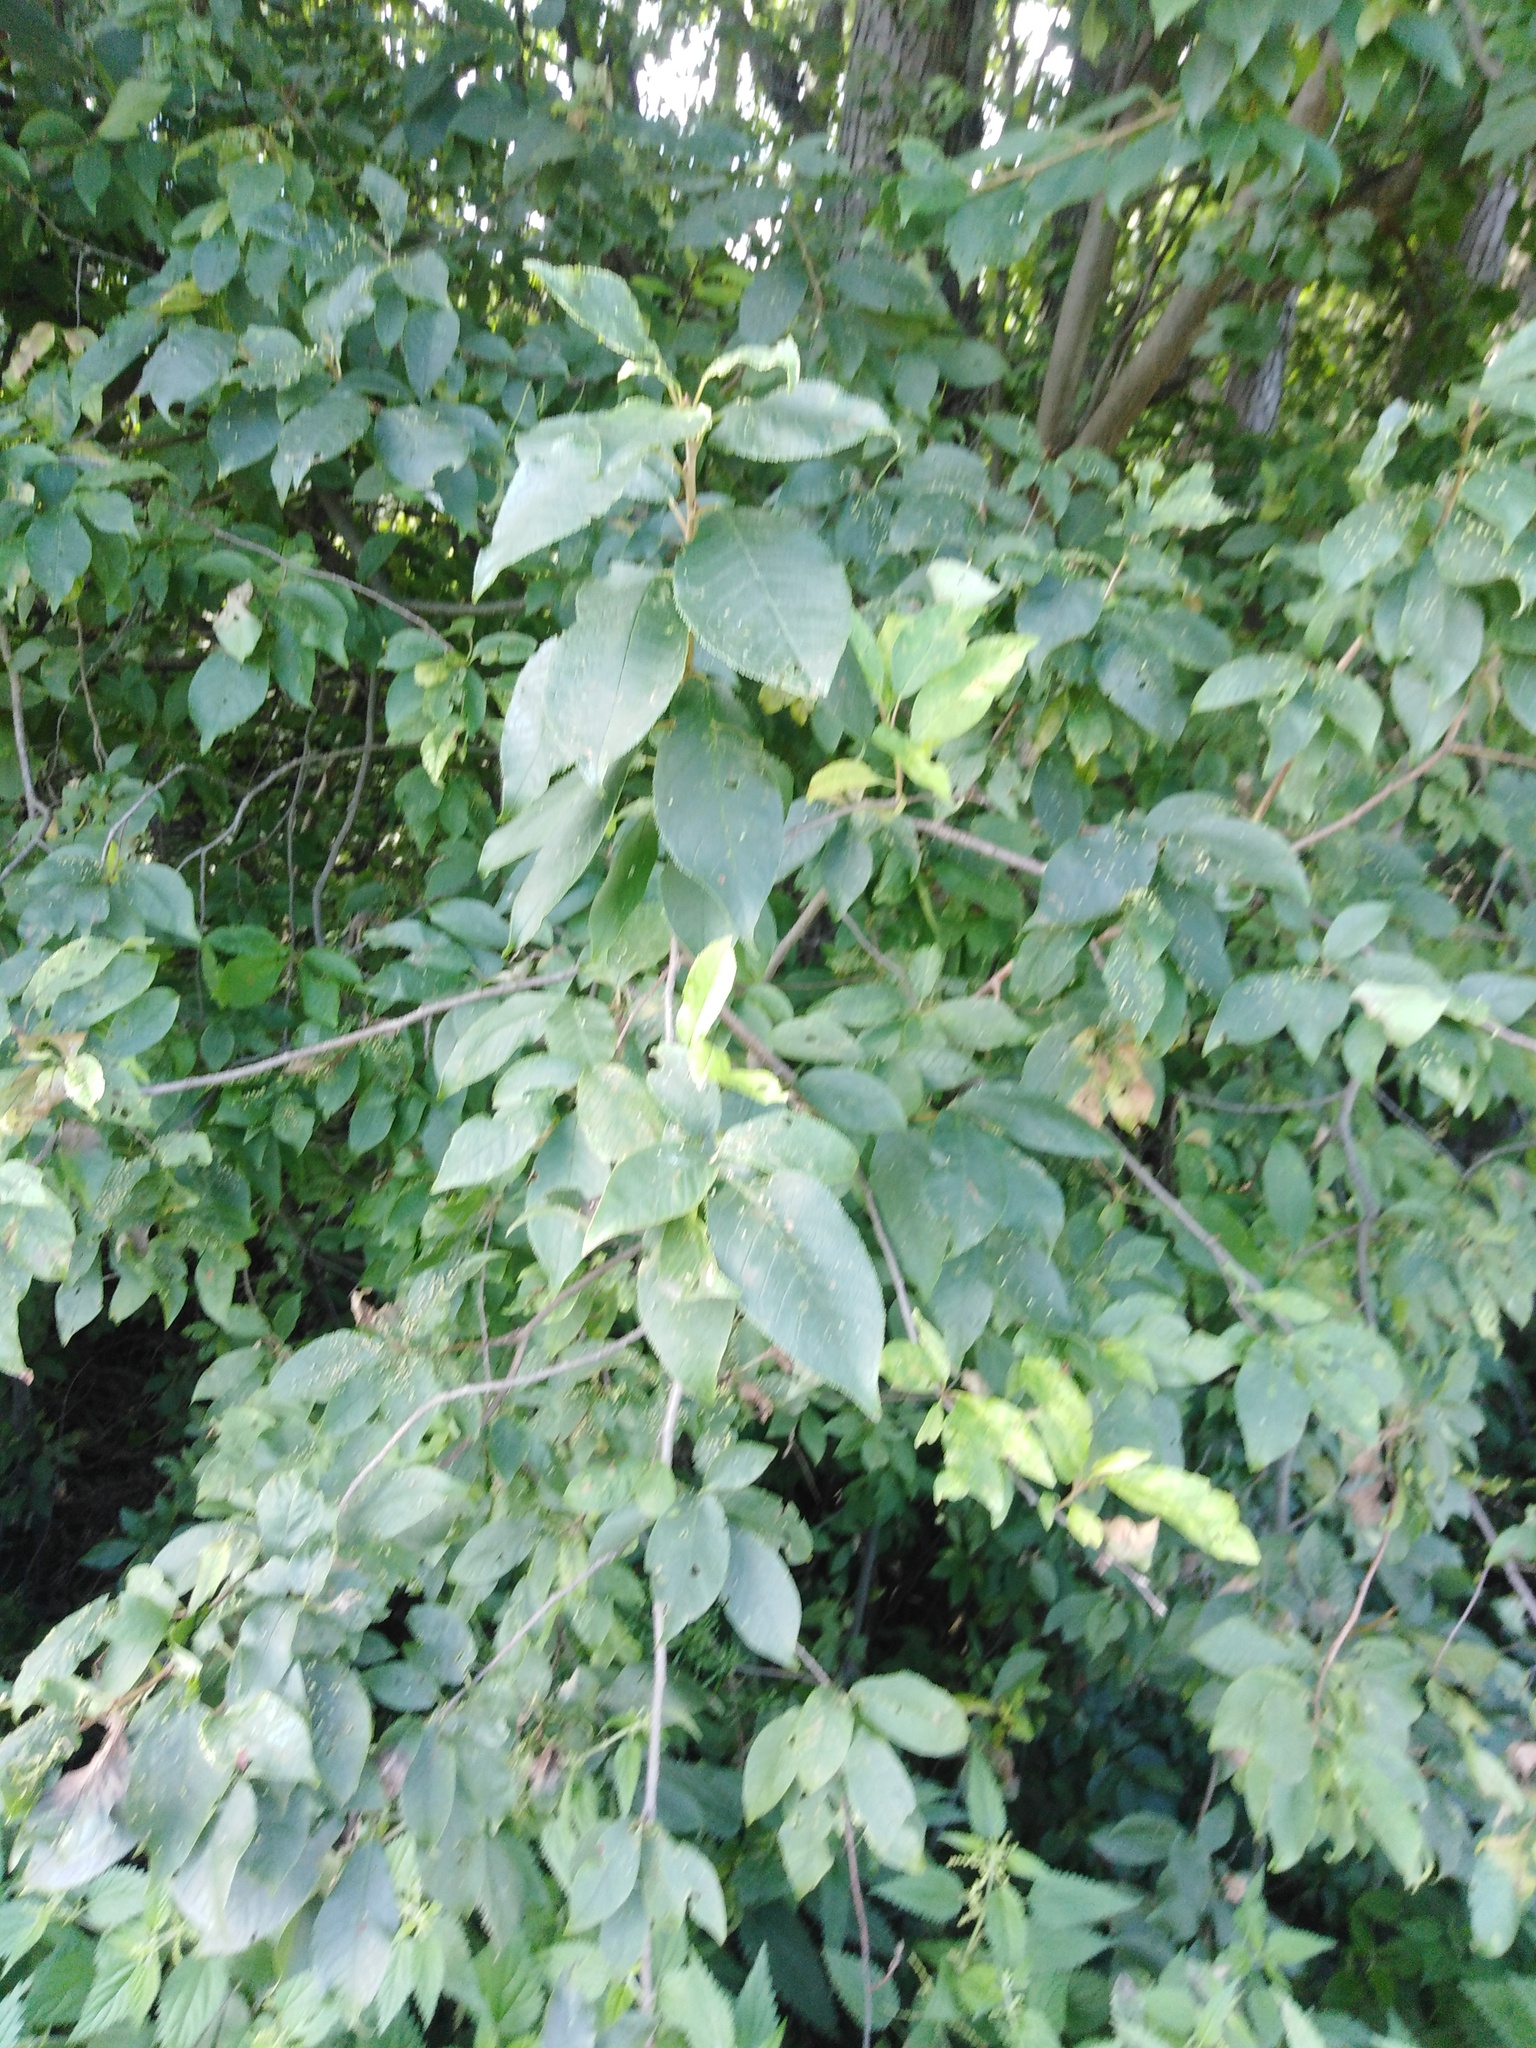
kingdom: Plantae
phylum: Tracheophyta
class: Magnoliopsida
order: Rosales
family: Rosaceae
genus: Prunus
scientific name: Prunus padus
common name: Bird cherry
